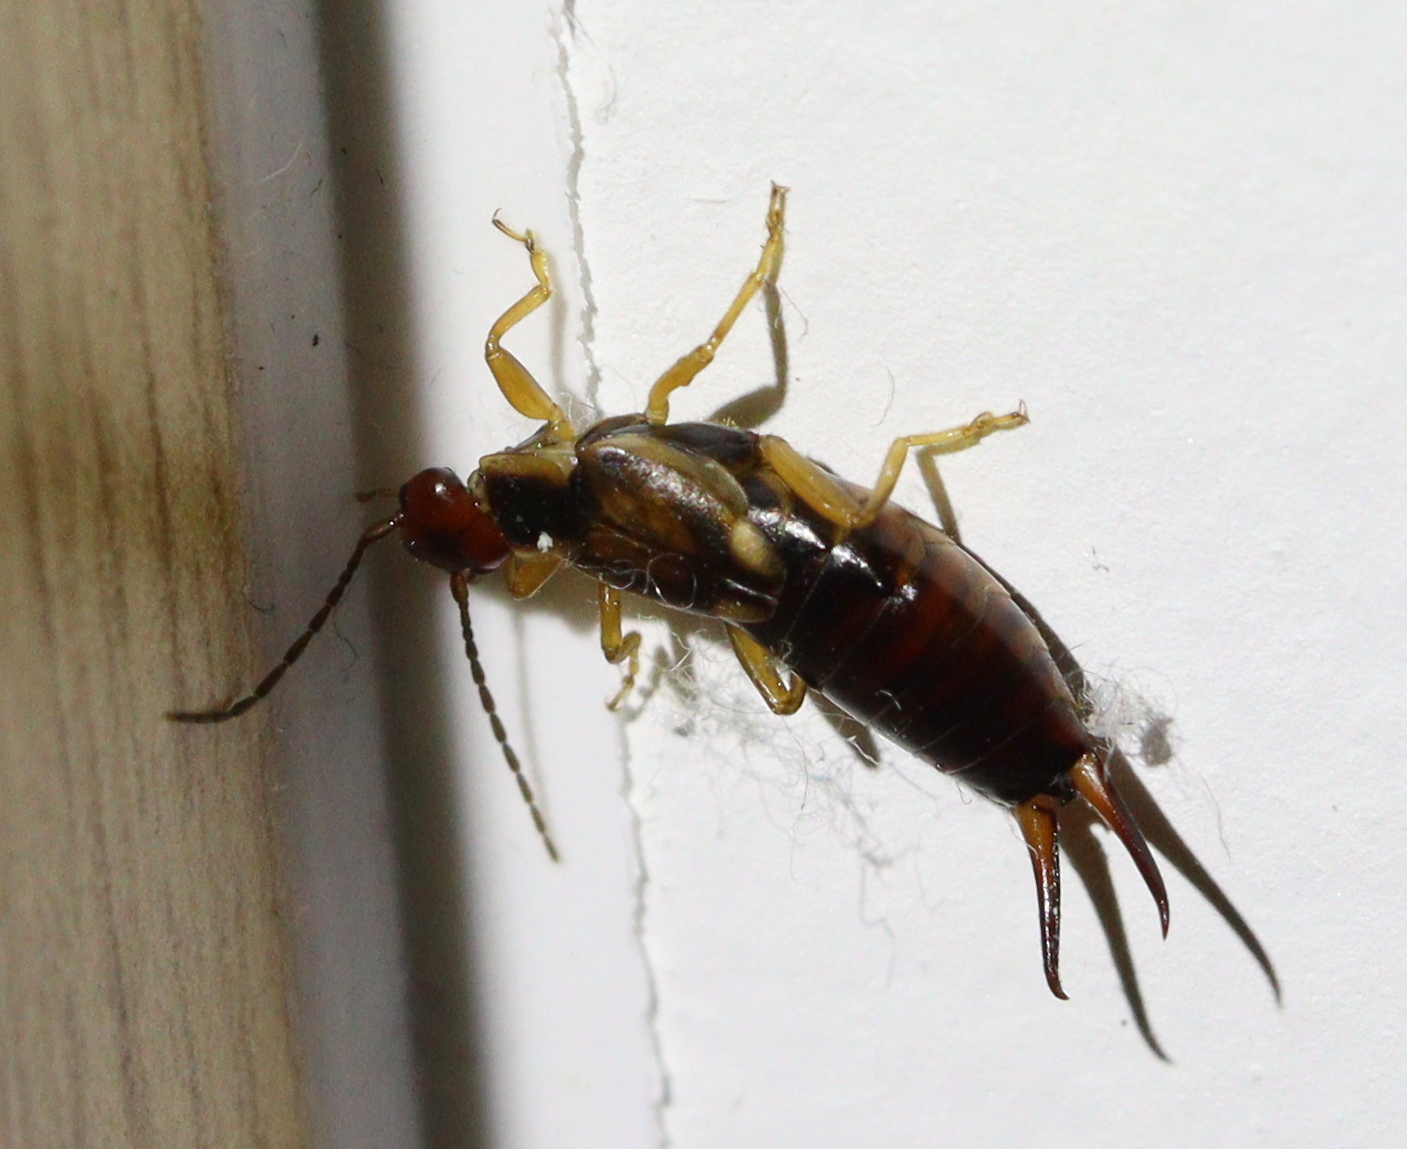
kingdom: Animalia
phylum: Arthropoda
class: Insecta
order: Dermaptera
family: Forficulidae
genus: Forficula
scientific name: Forficula
